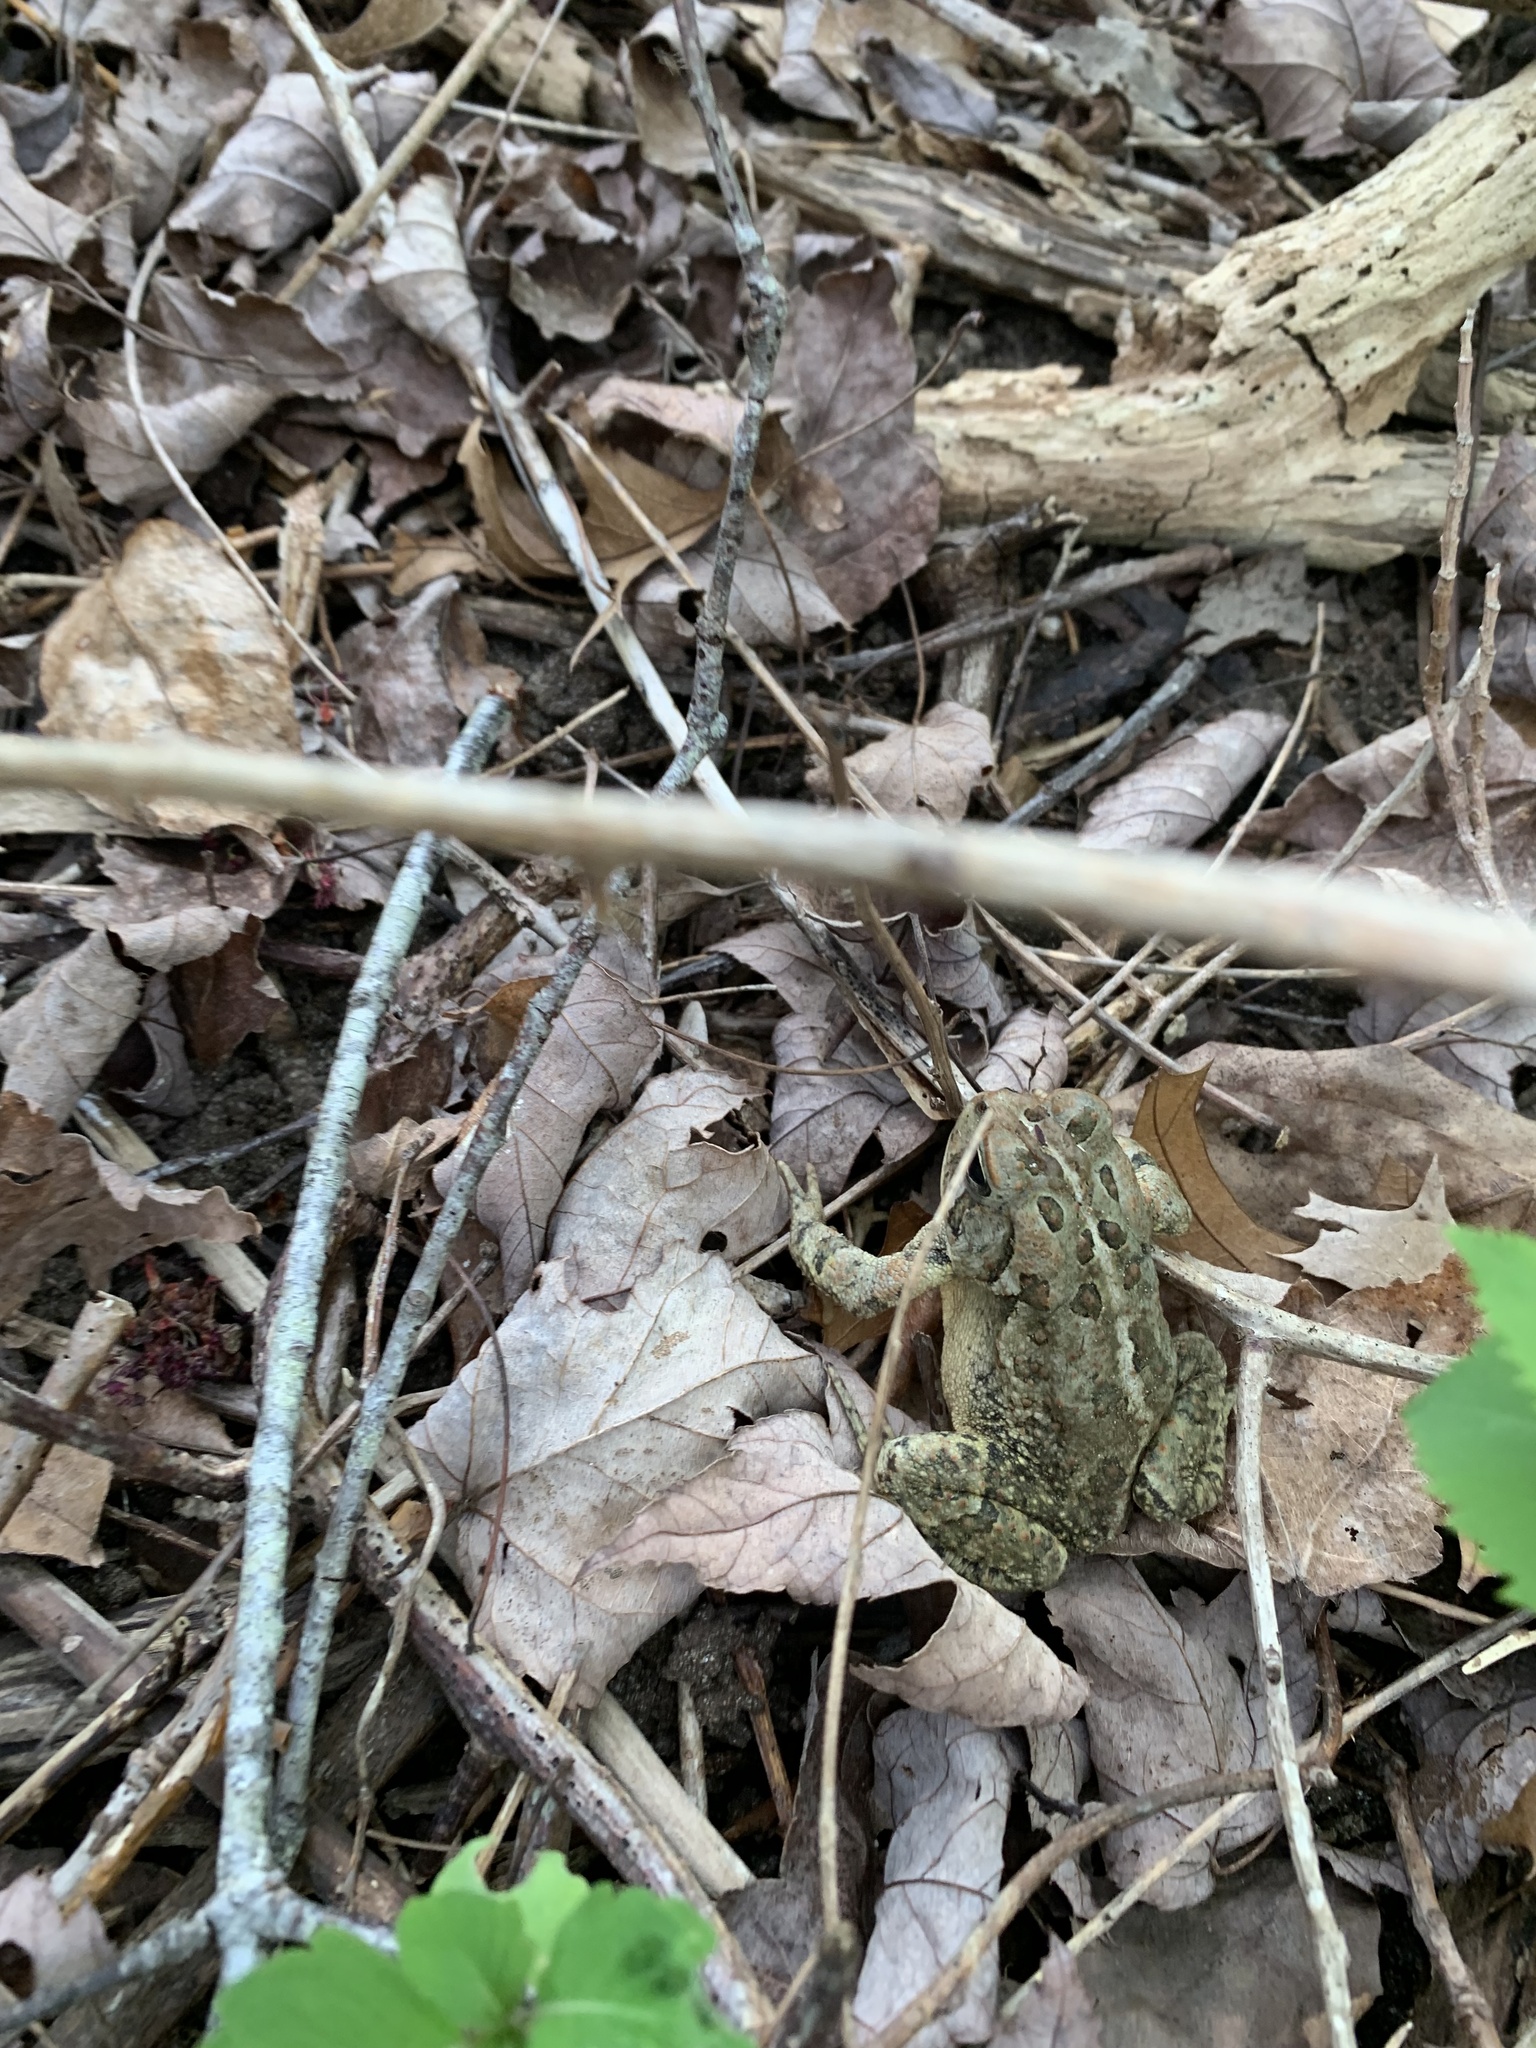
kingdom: Animalia
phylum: Chordata
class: Amphibia
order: Anura
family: Bufonidae
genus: Anaxyrus
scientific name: Anaxyrus fowleri
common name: Fowler's toad
